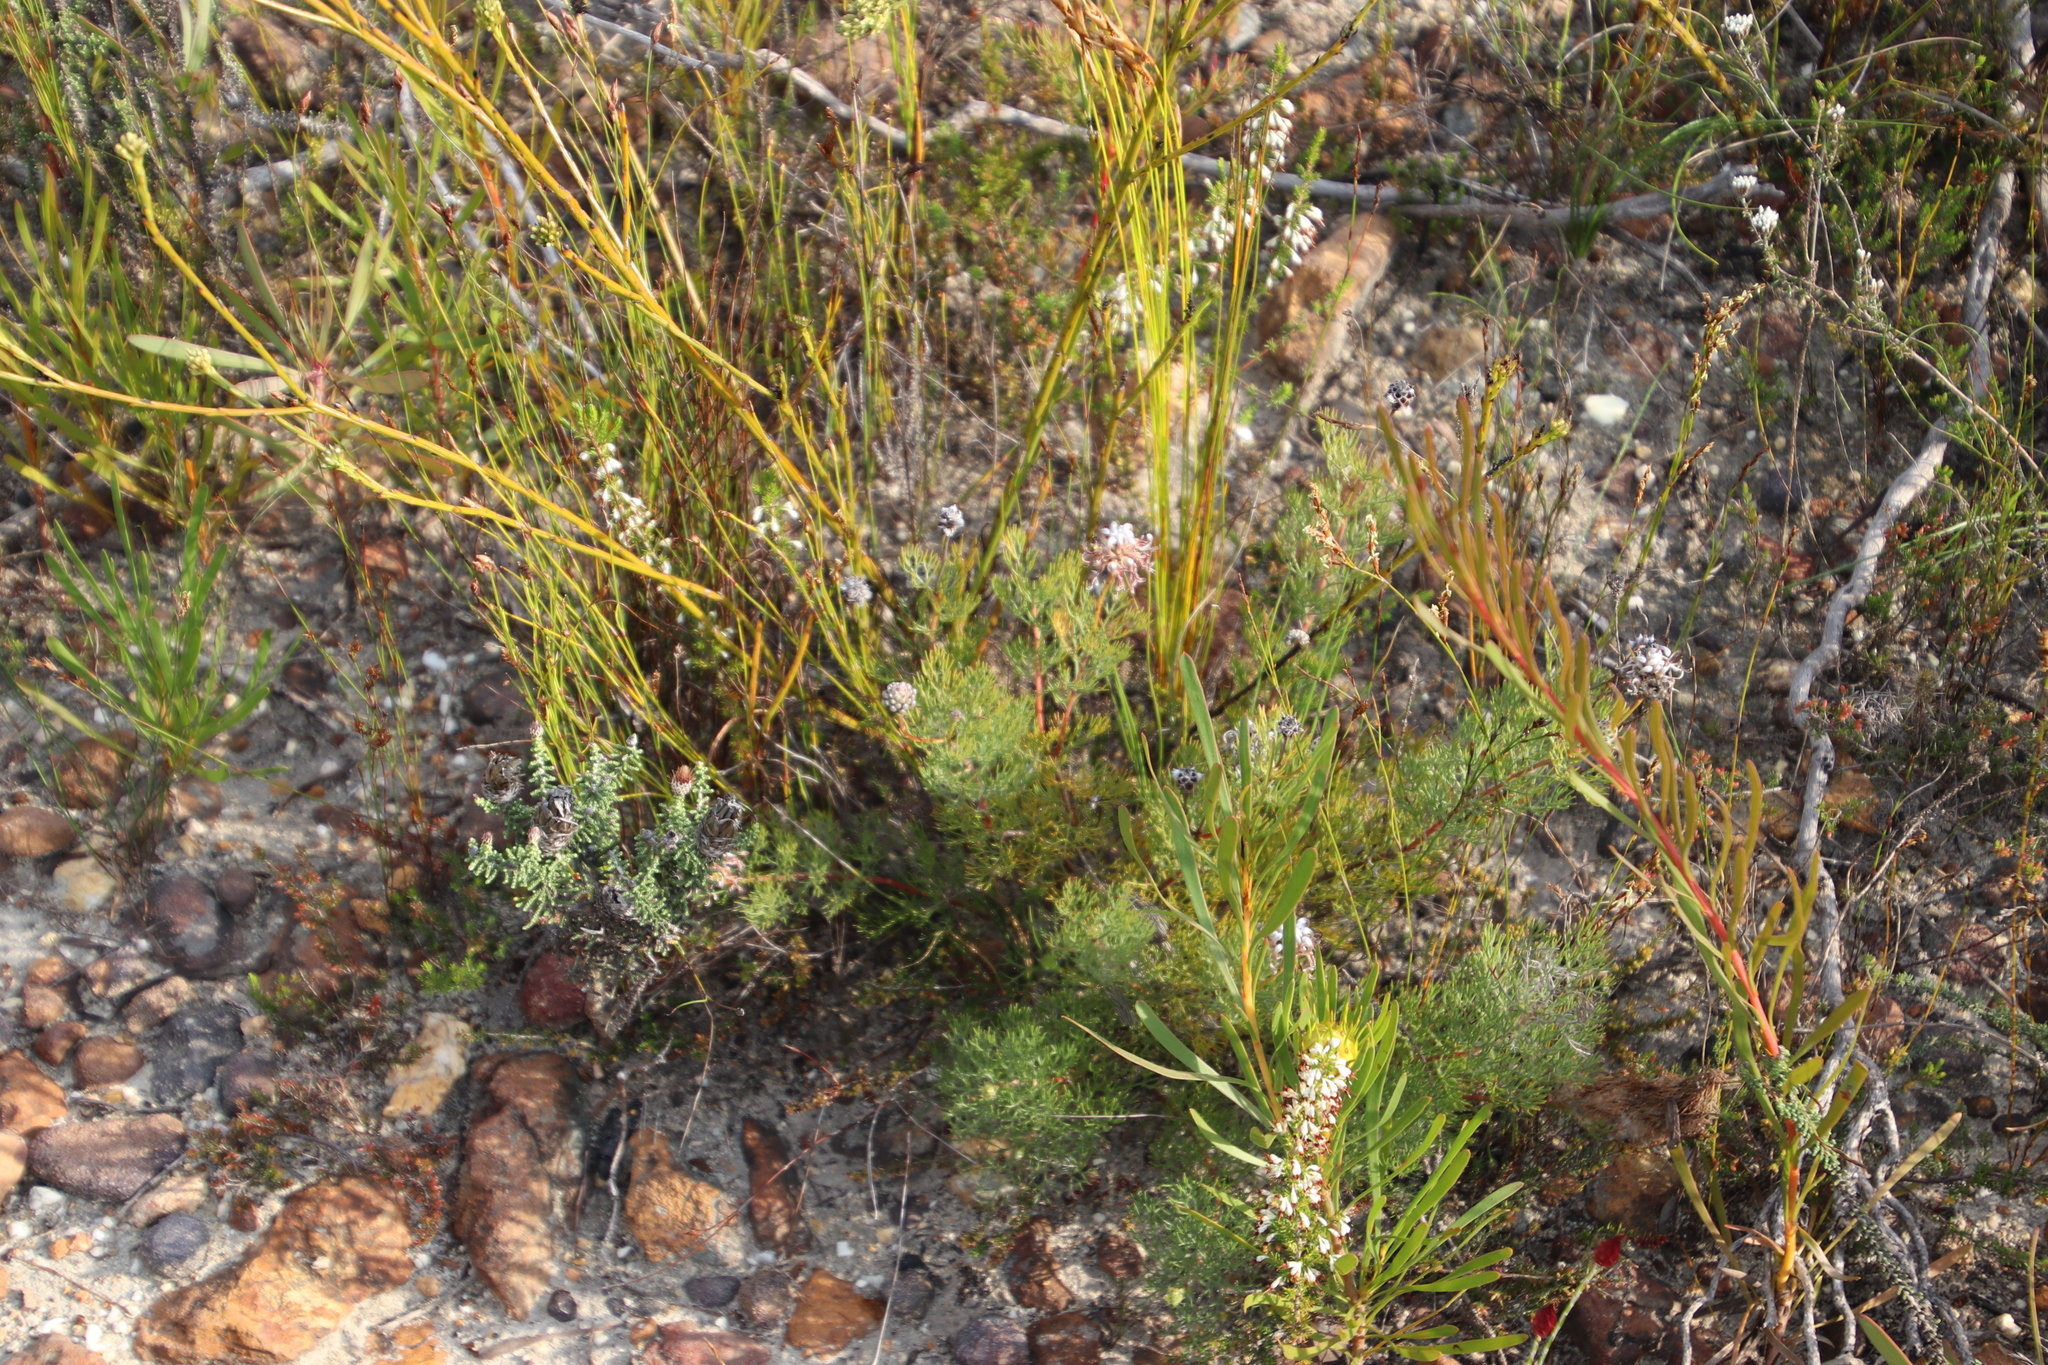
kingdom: Plantae
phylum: Tracheophyta
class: Magnoliopsida
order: Proteales
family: Proteaceae
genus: Serruria
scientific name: Serruria gremialis
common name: Riviersonderend spiderhead
